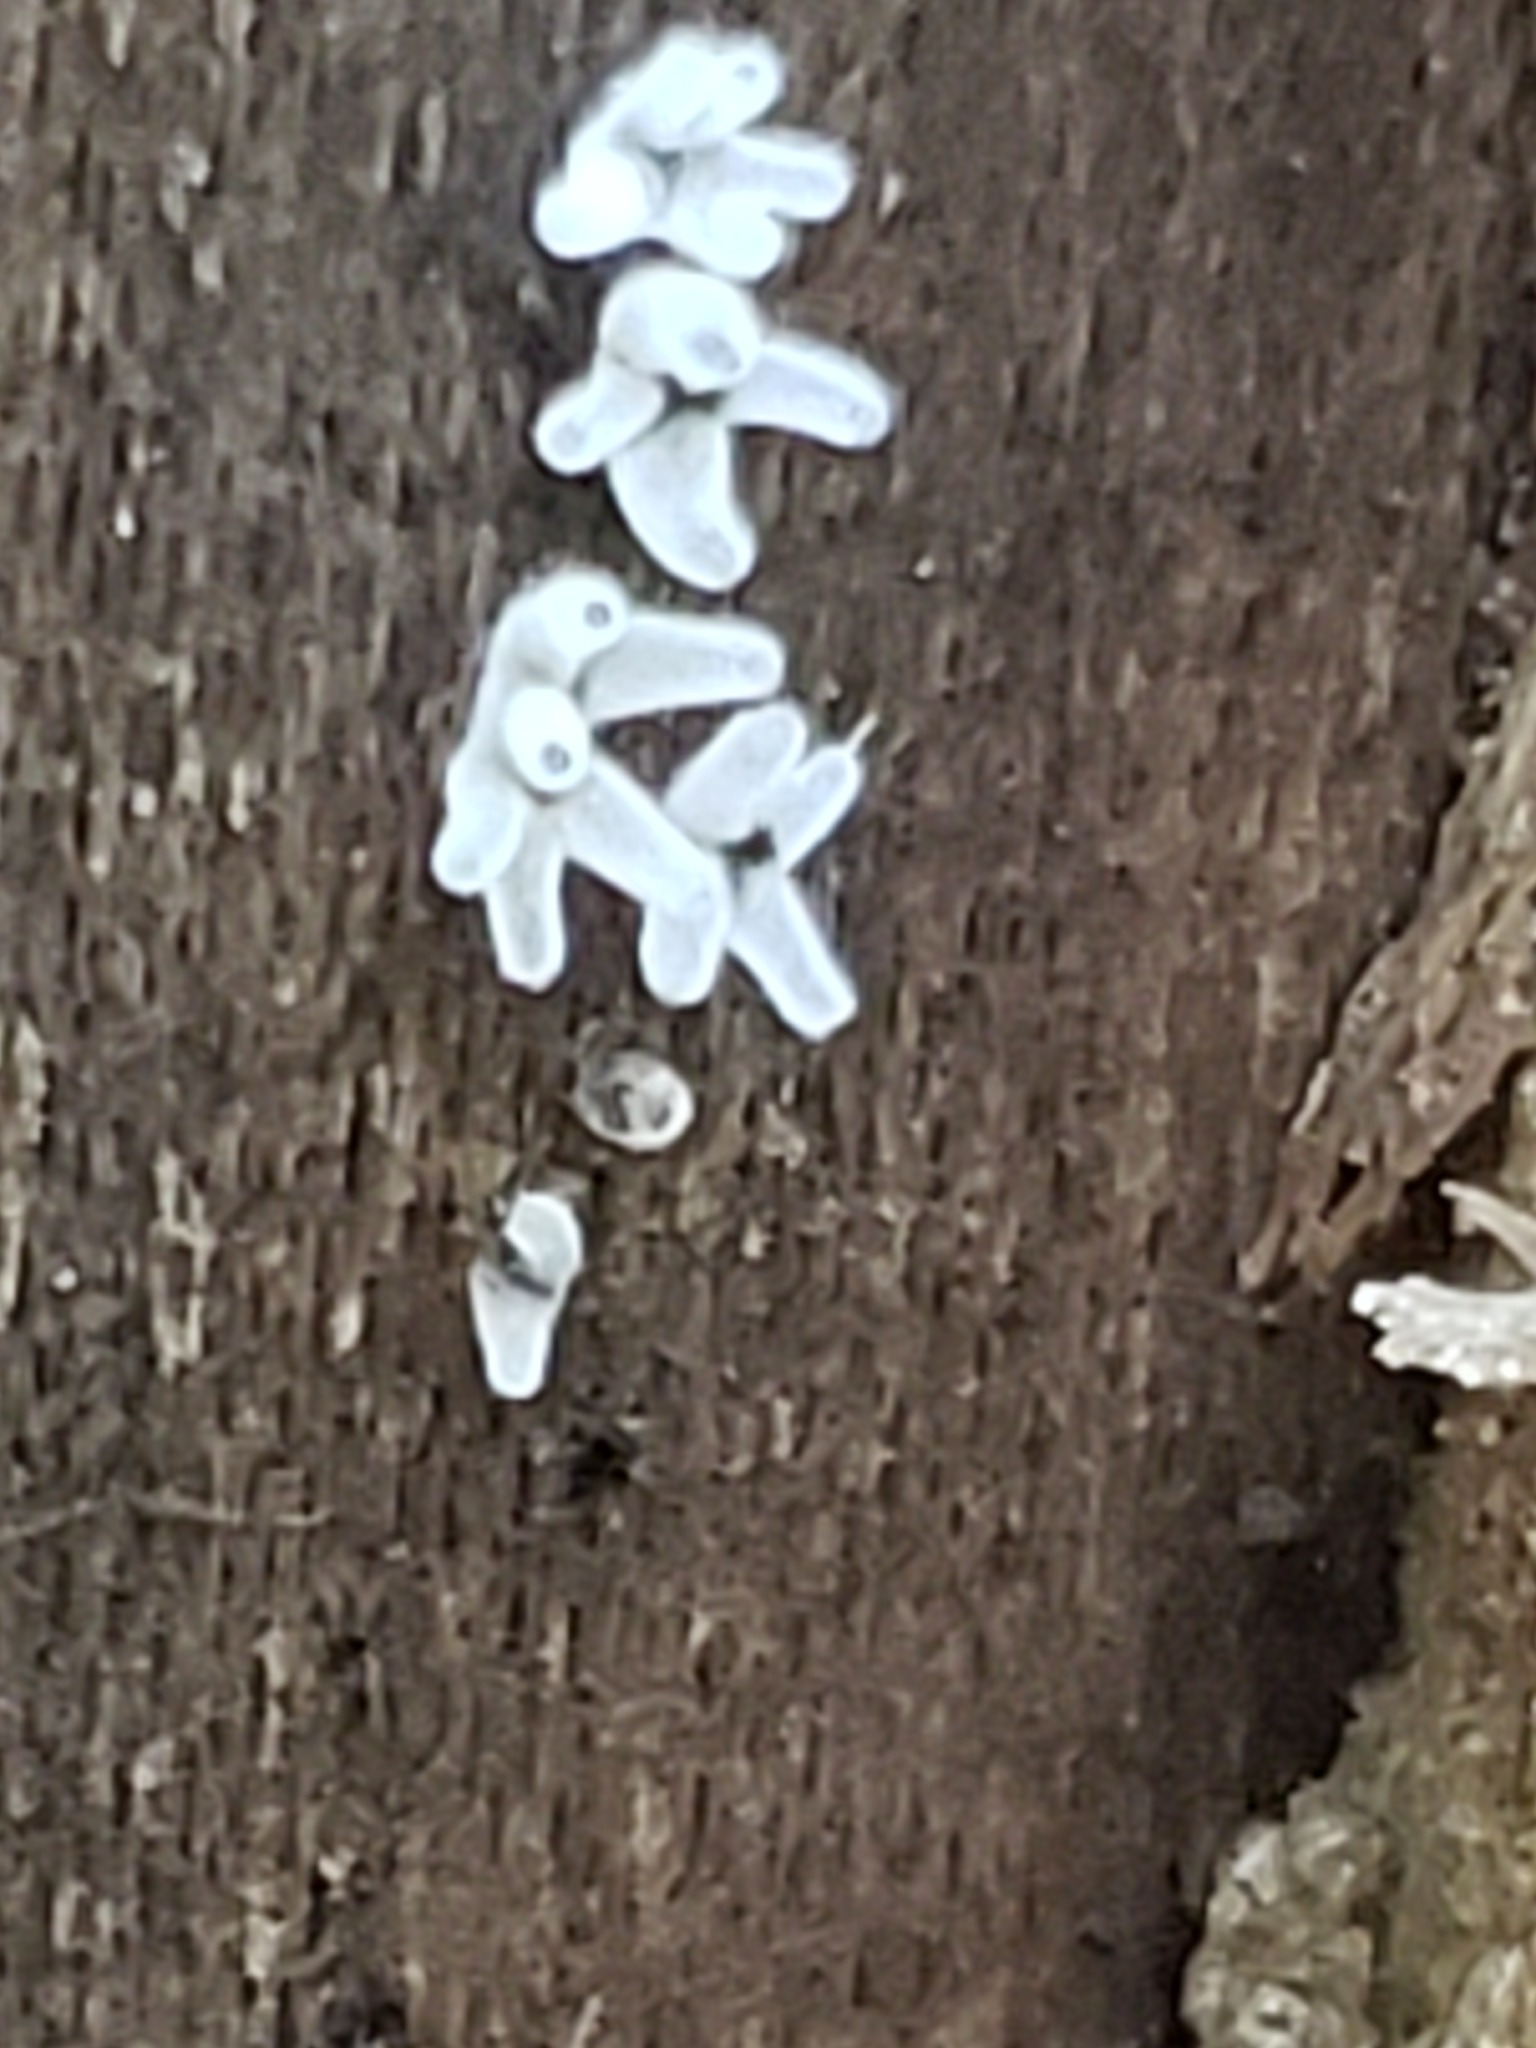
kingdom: Protozoa
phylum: Mycetozoa
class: Protosteliomycetes
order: Ceratiomyxales
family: Ceratiomyxaceae
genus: Ceratiomyxa
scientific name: Ceratiomyxa fruticulosa
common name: Honeycomb coral slime mold
